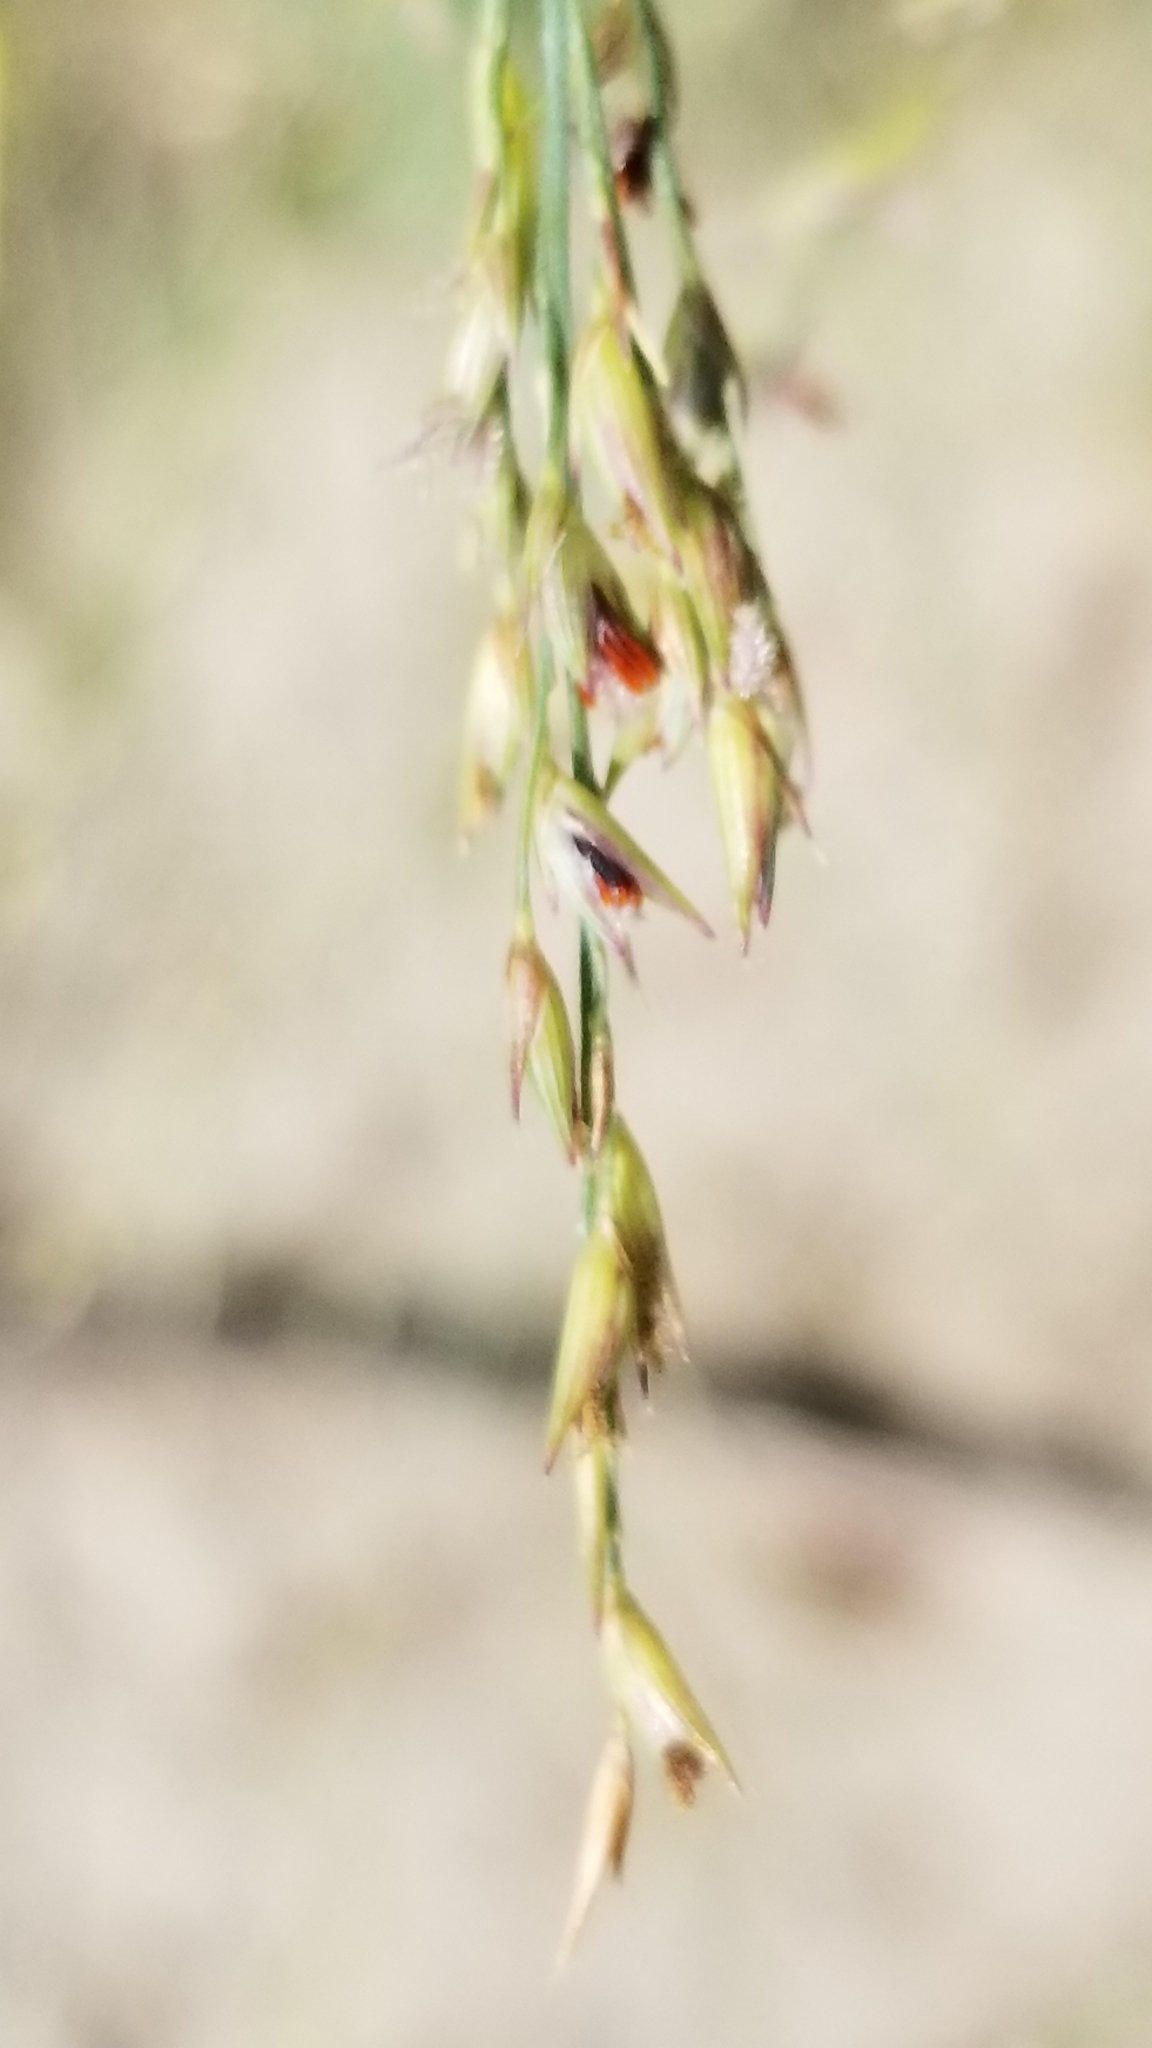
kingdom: Plantae
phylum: Tracheophyta
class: Liliopsida
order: Poales
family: Poaceae
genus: Panicum
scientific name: Panicum virgatum
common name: Switchgrass
